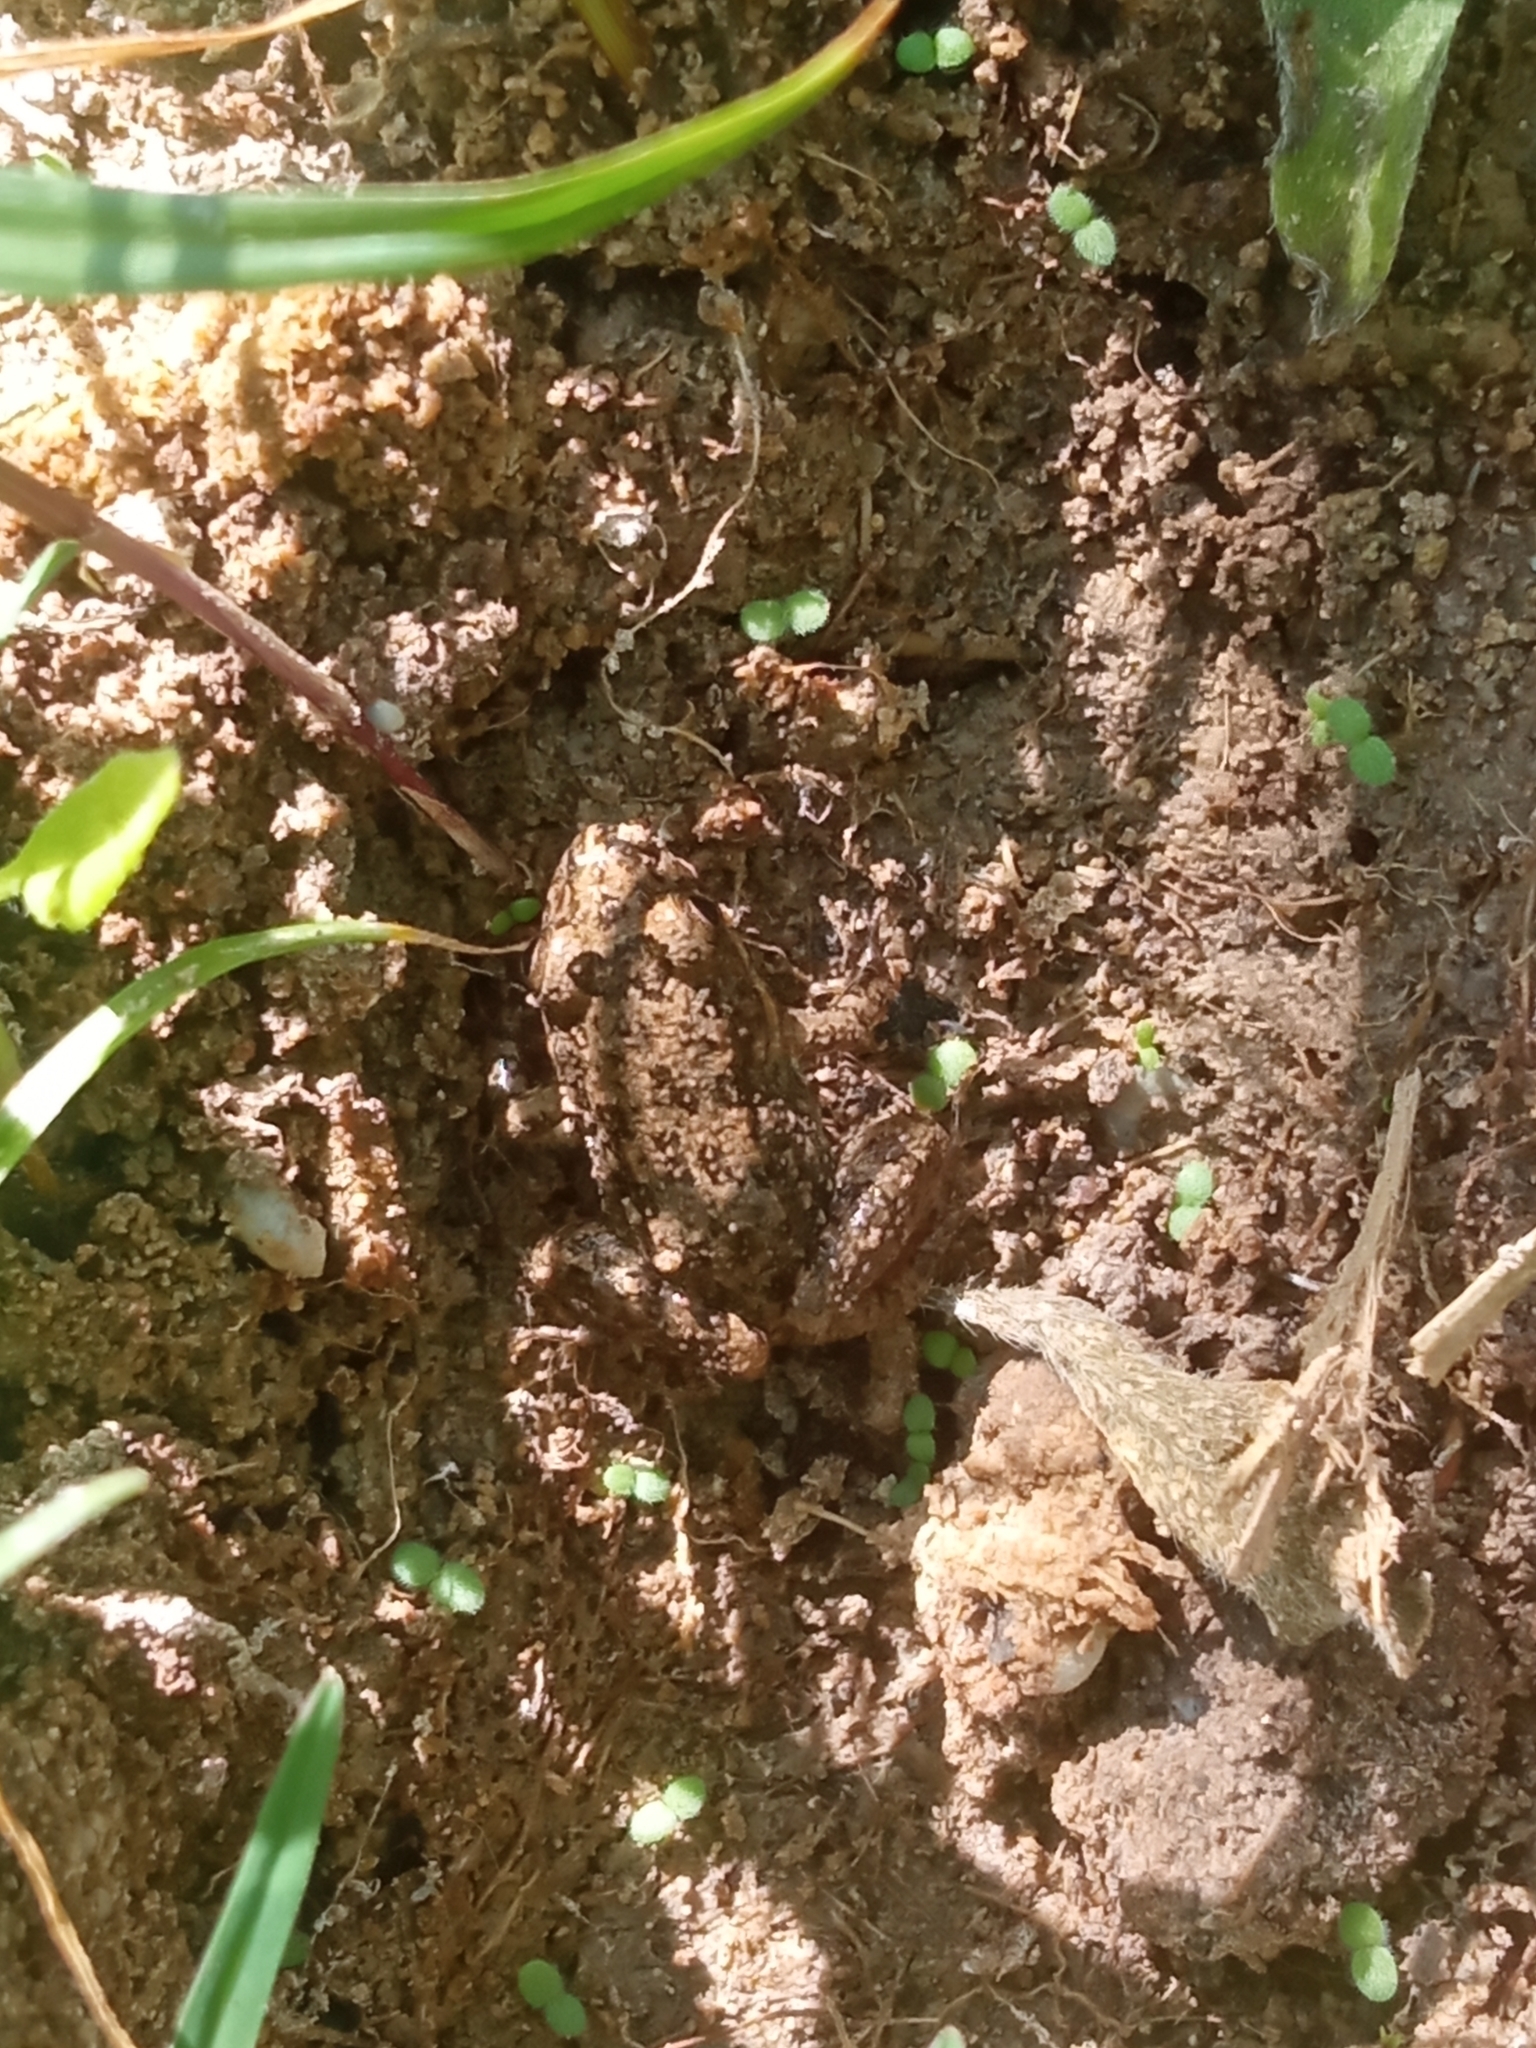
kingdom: Animalia
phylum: Chordata
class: Amphibia
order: Anura
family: Leptodactylidae
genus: Leptodactylus
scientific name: Leptodactylus melanonotus
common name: Fringe-toed foamfrog
